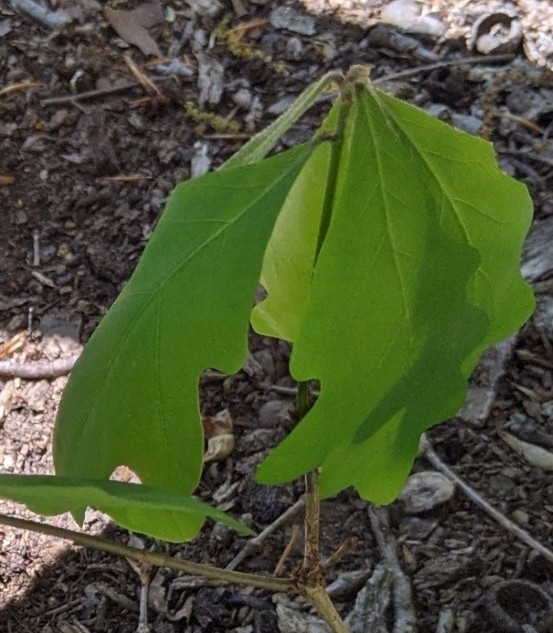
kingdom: Plantae
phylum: Tracheophyta
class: Magnoliopsida
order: Fagales
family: Fagaceae
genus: Quercus
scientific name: Quercus alba
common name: White oak
